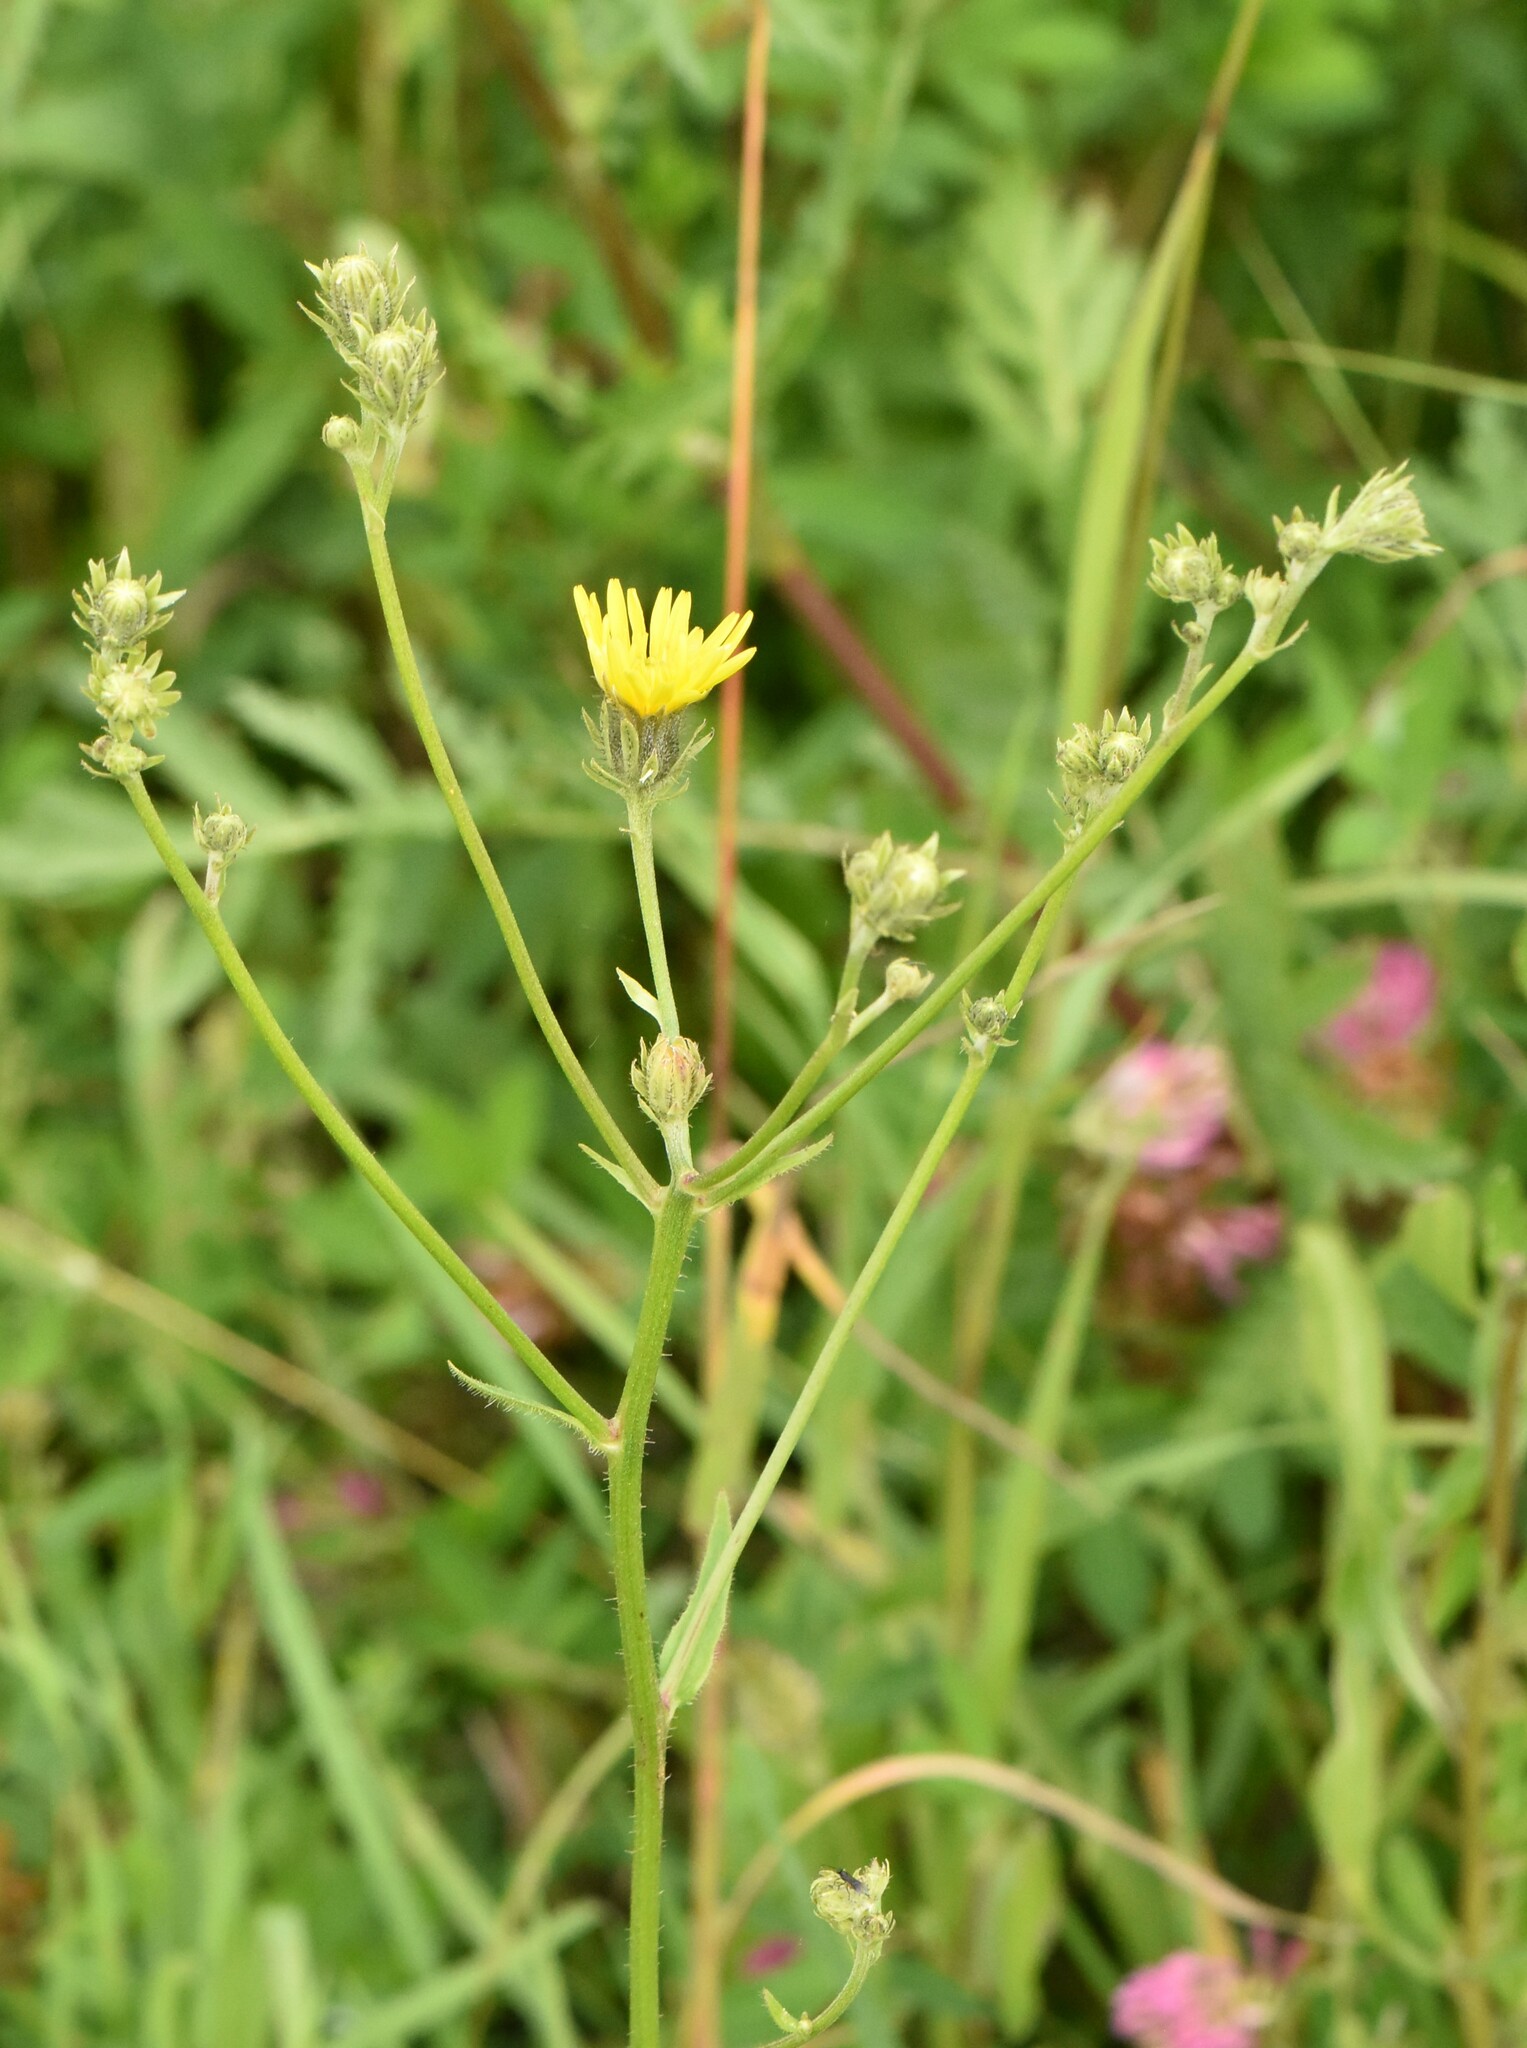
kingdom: Plantae
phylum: Tracheophyta
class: Magnoliopsida
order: Asterales
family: Asteraceae
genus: Picris
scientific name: Picris hieracioides
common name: Hawkweed oxtongue
